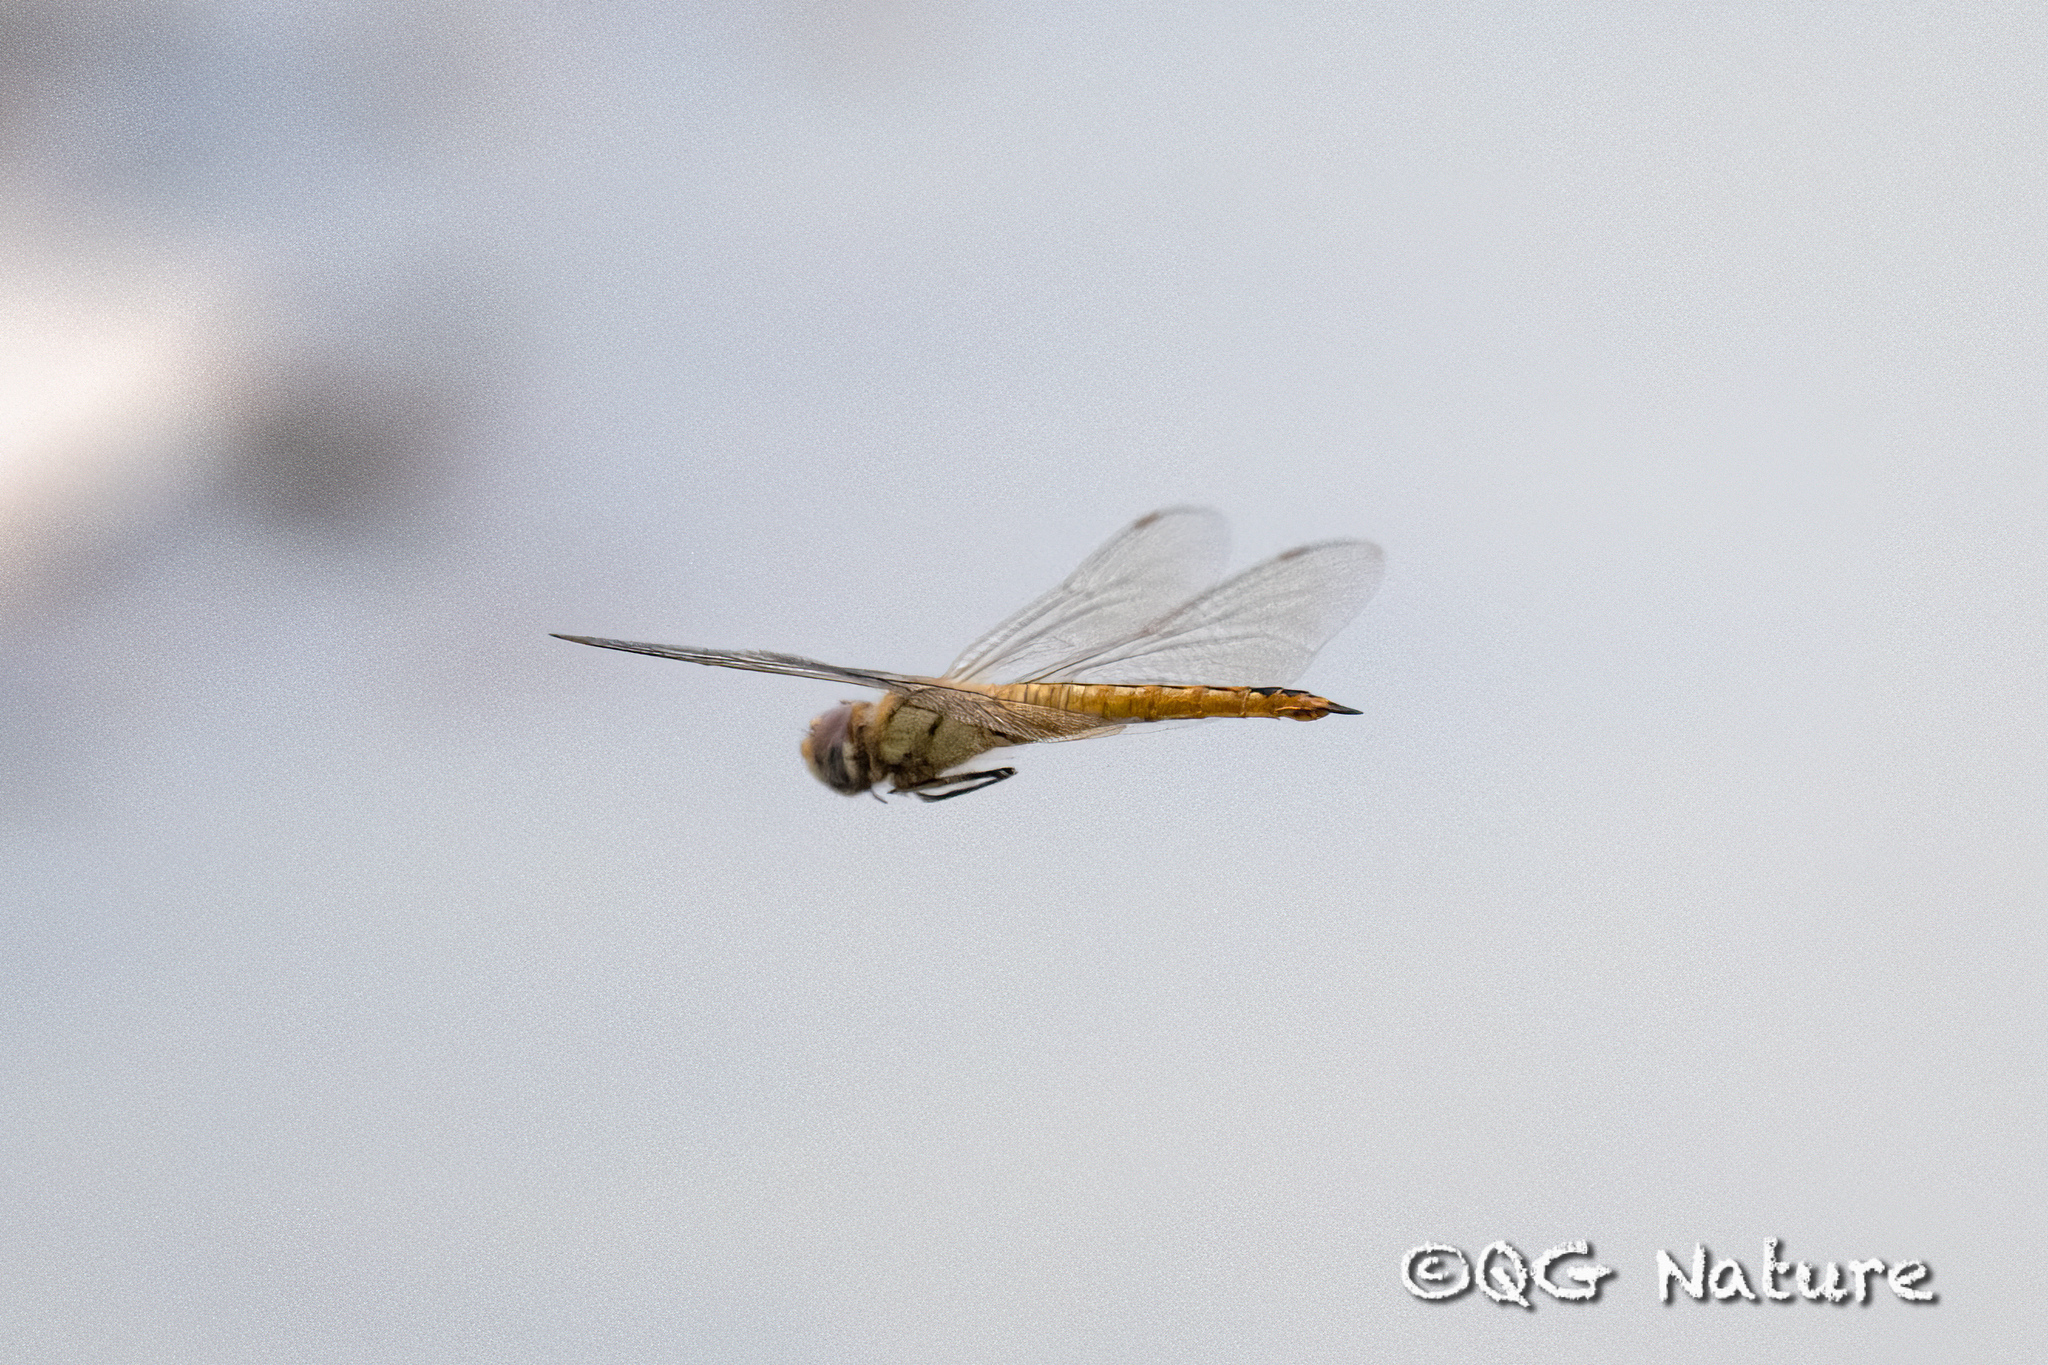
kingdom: Animalia
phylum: Arthropoda
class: Insecta
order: Odonata
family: Libellulidae
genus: Pantala
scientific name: Pantala flavescens
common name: Wandering glider
